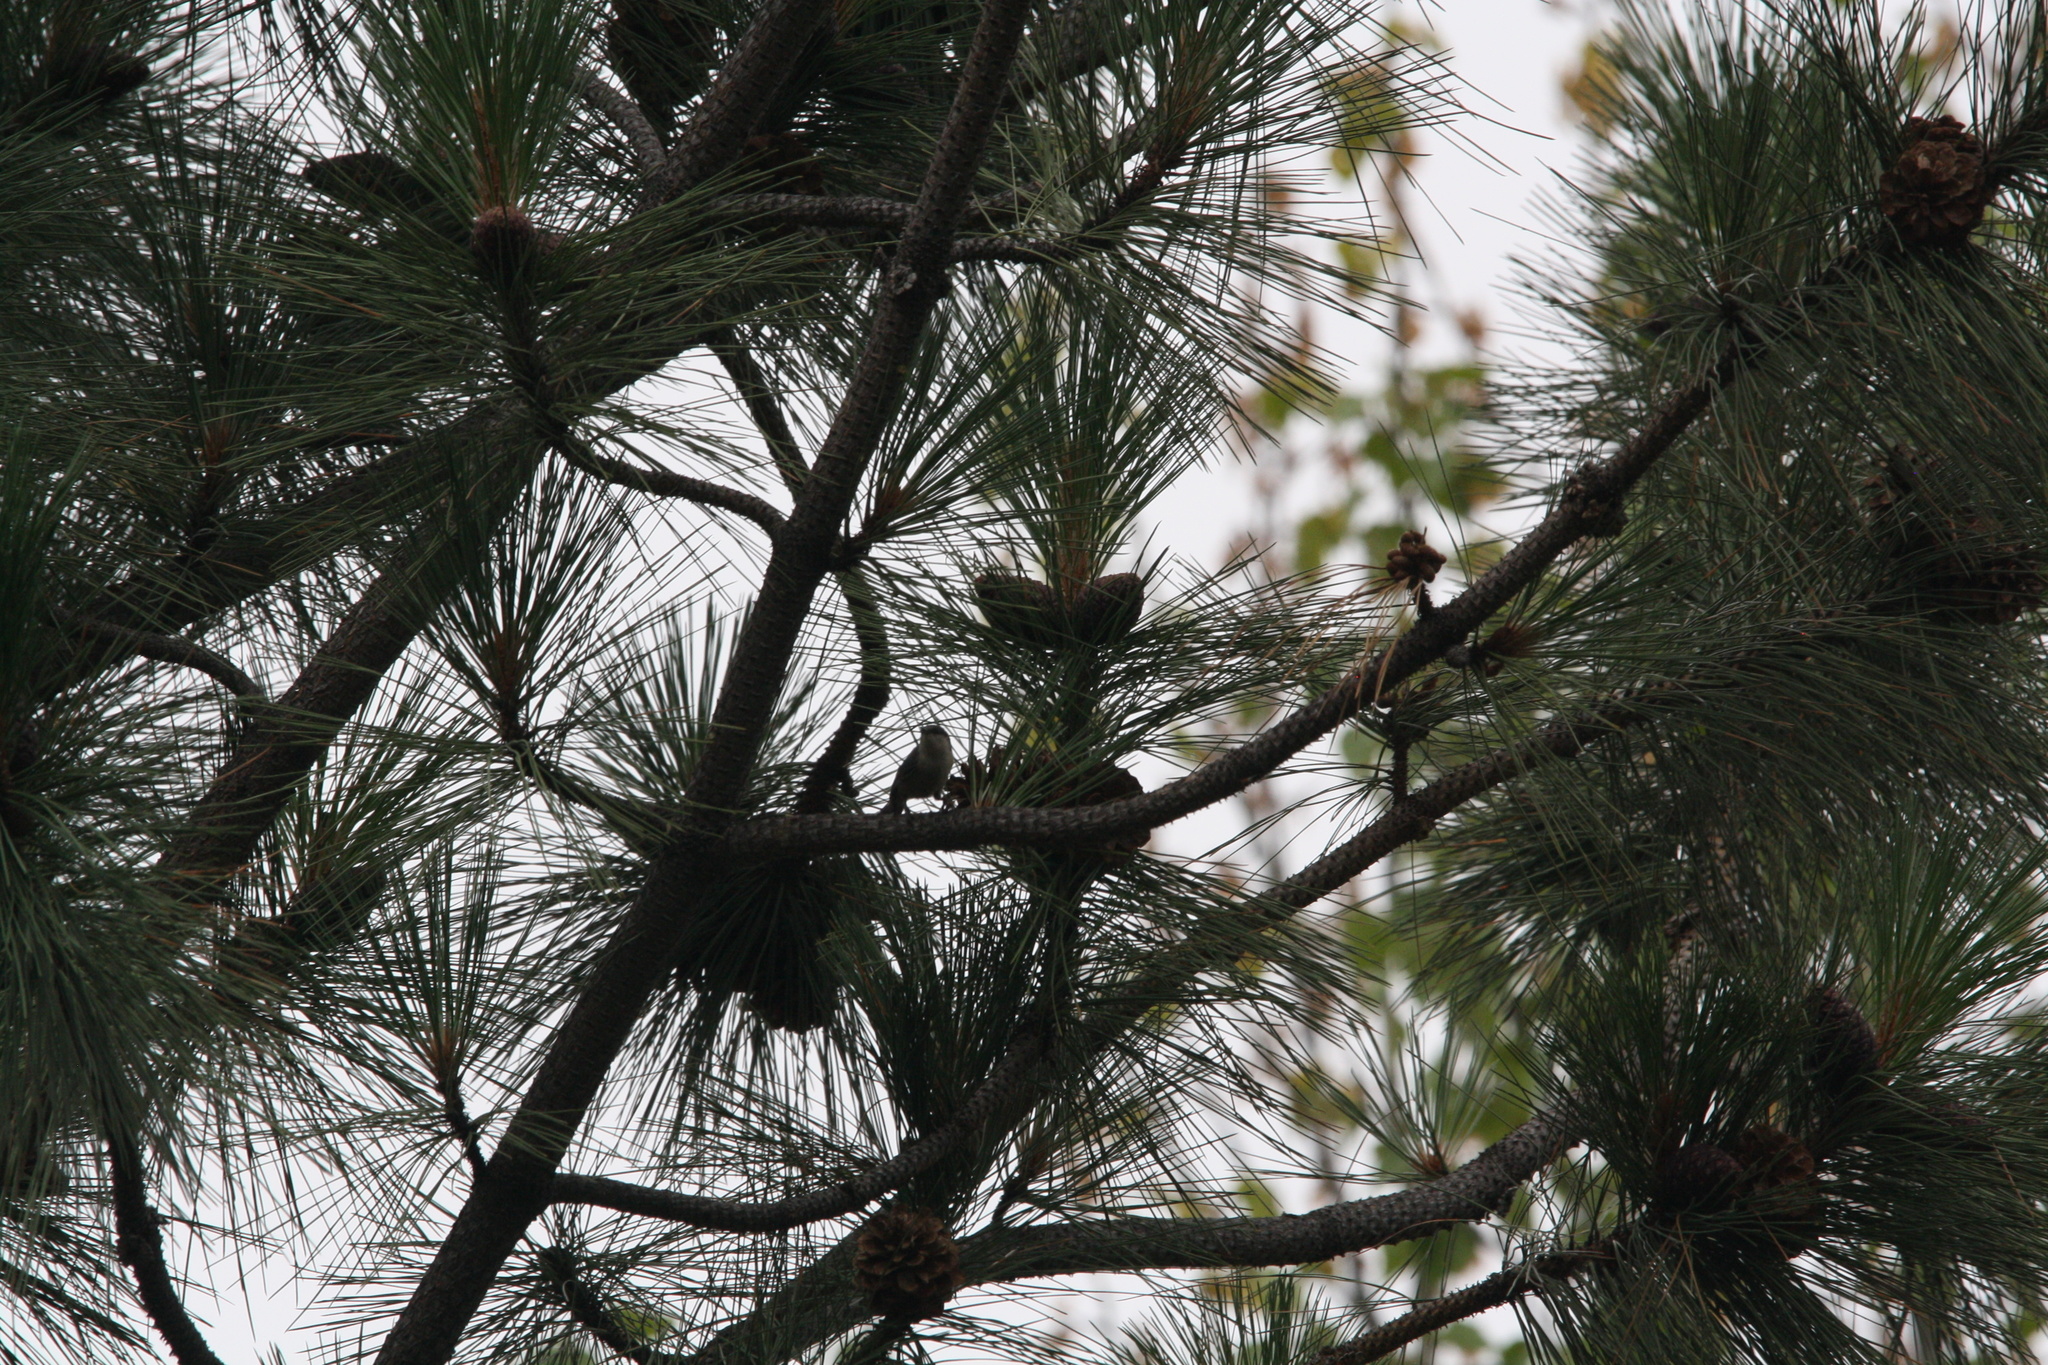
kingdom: Animalia
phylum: Chordata
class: Aves
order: Passeriformes
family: Sittidae
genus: Sitta
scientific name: Sitta pygmaea
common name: Pygmy nuthatch
